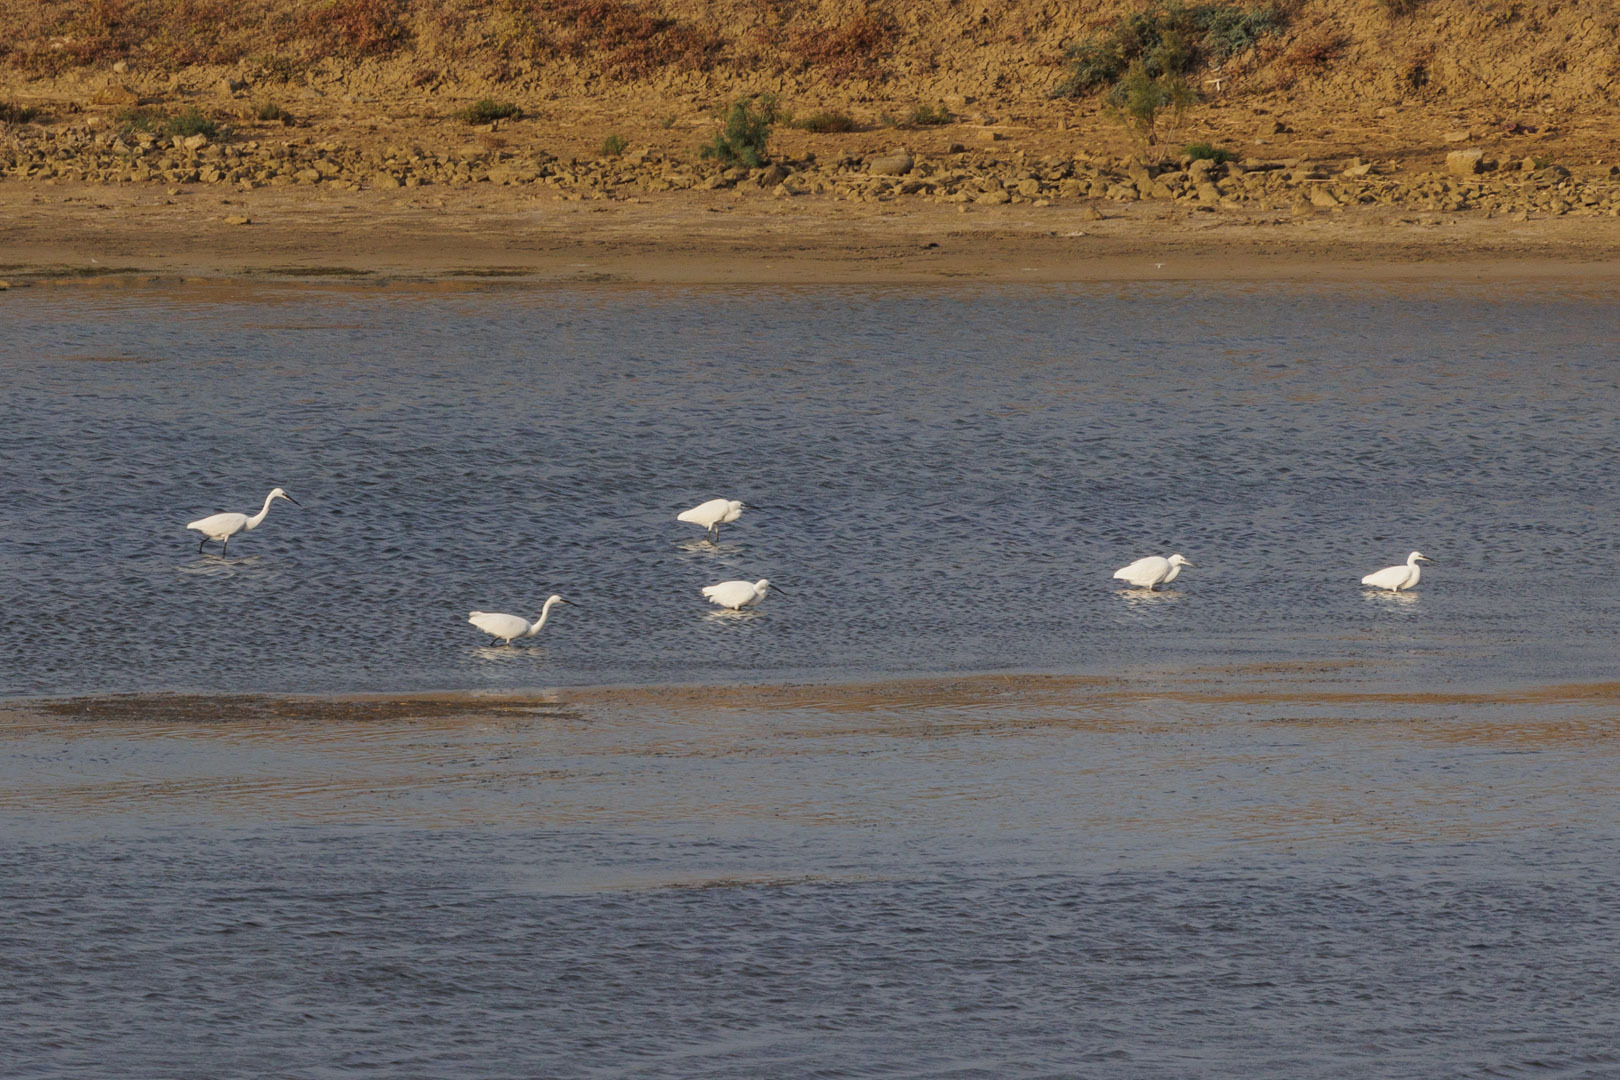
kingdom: Animalia
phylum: Chordata
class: Aves
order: Pelecaniformes
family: Ardeidae
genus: Egretta
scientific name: Egretta garzetta
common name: Little egret
